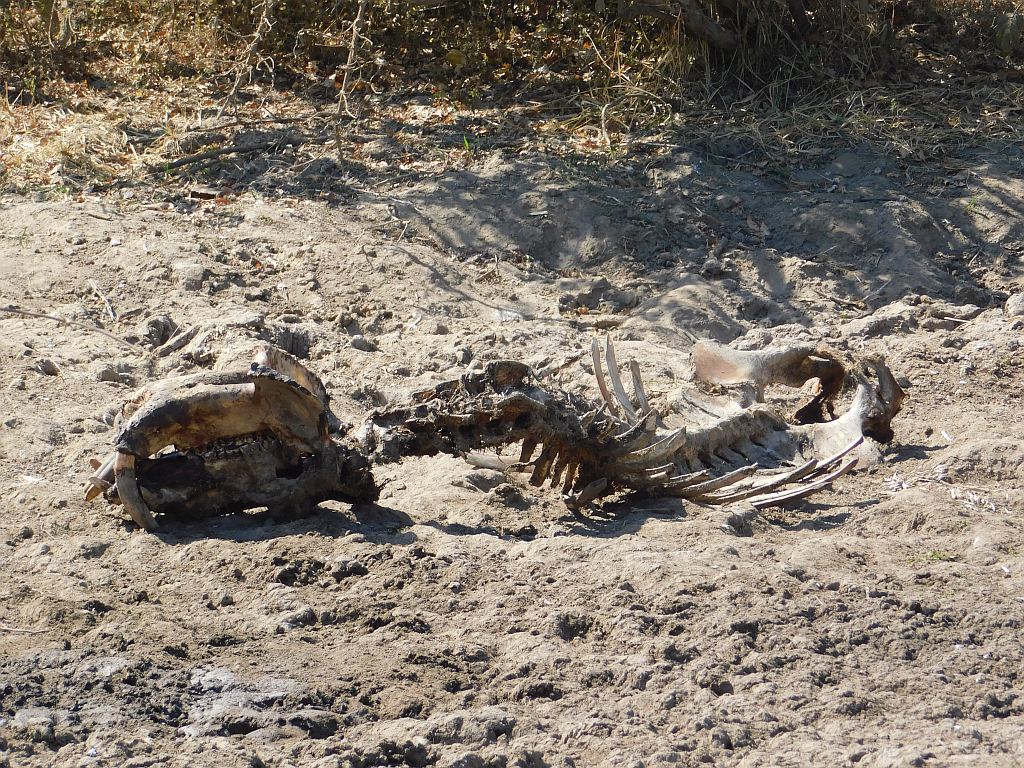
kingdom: Animalia
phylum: Chordata
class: Mammalia
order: Artiodactyla
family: Hippopotamidae
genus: Hippopotamus
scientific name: Hippopotamus amphibius
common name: Common hippopotamus
